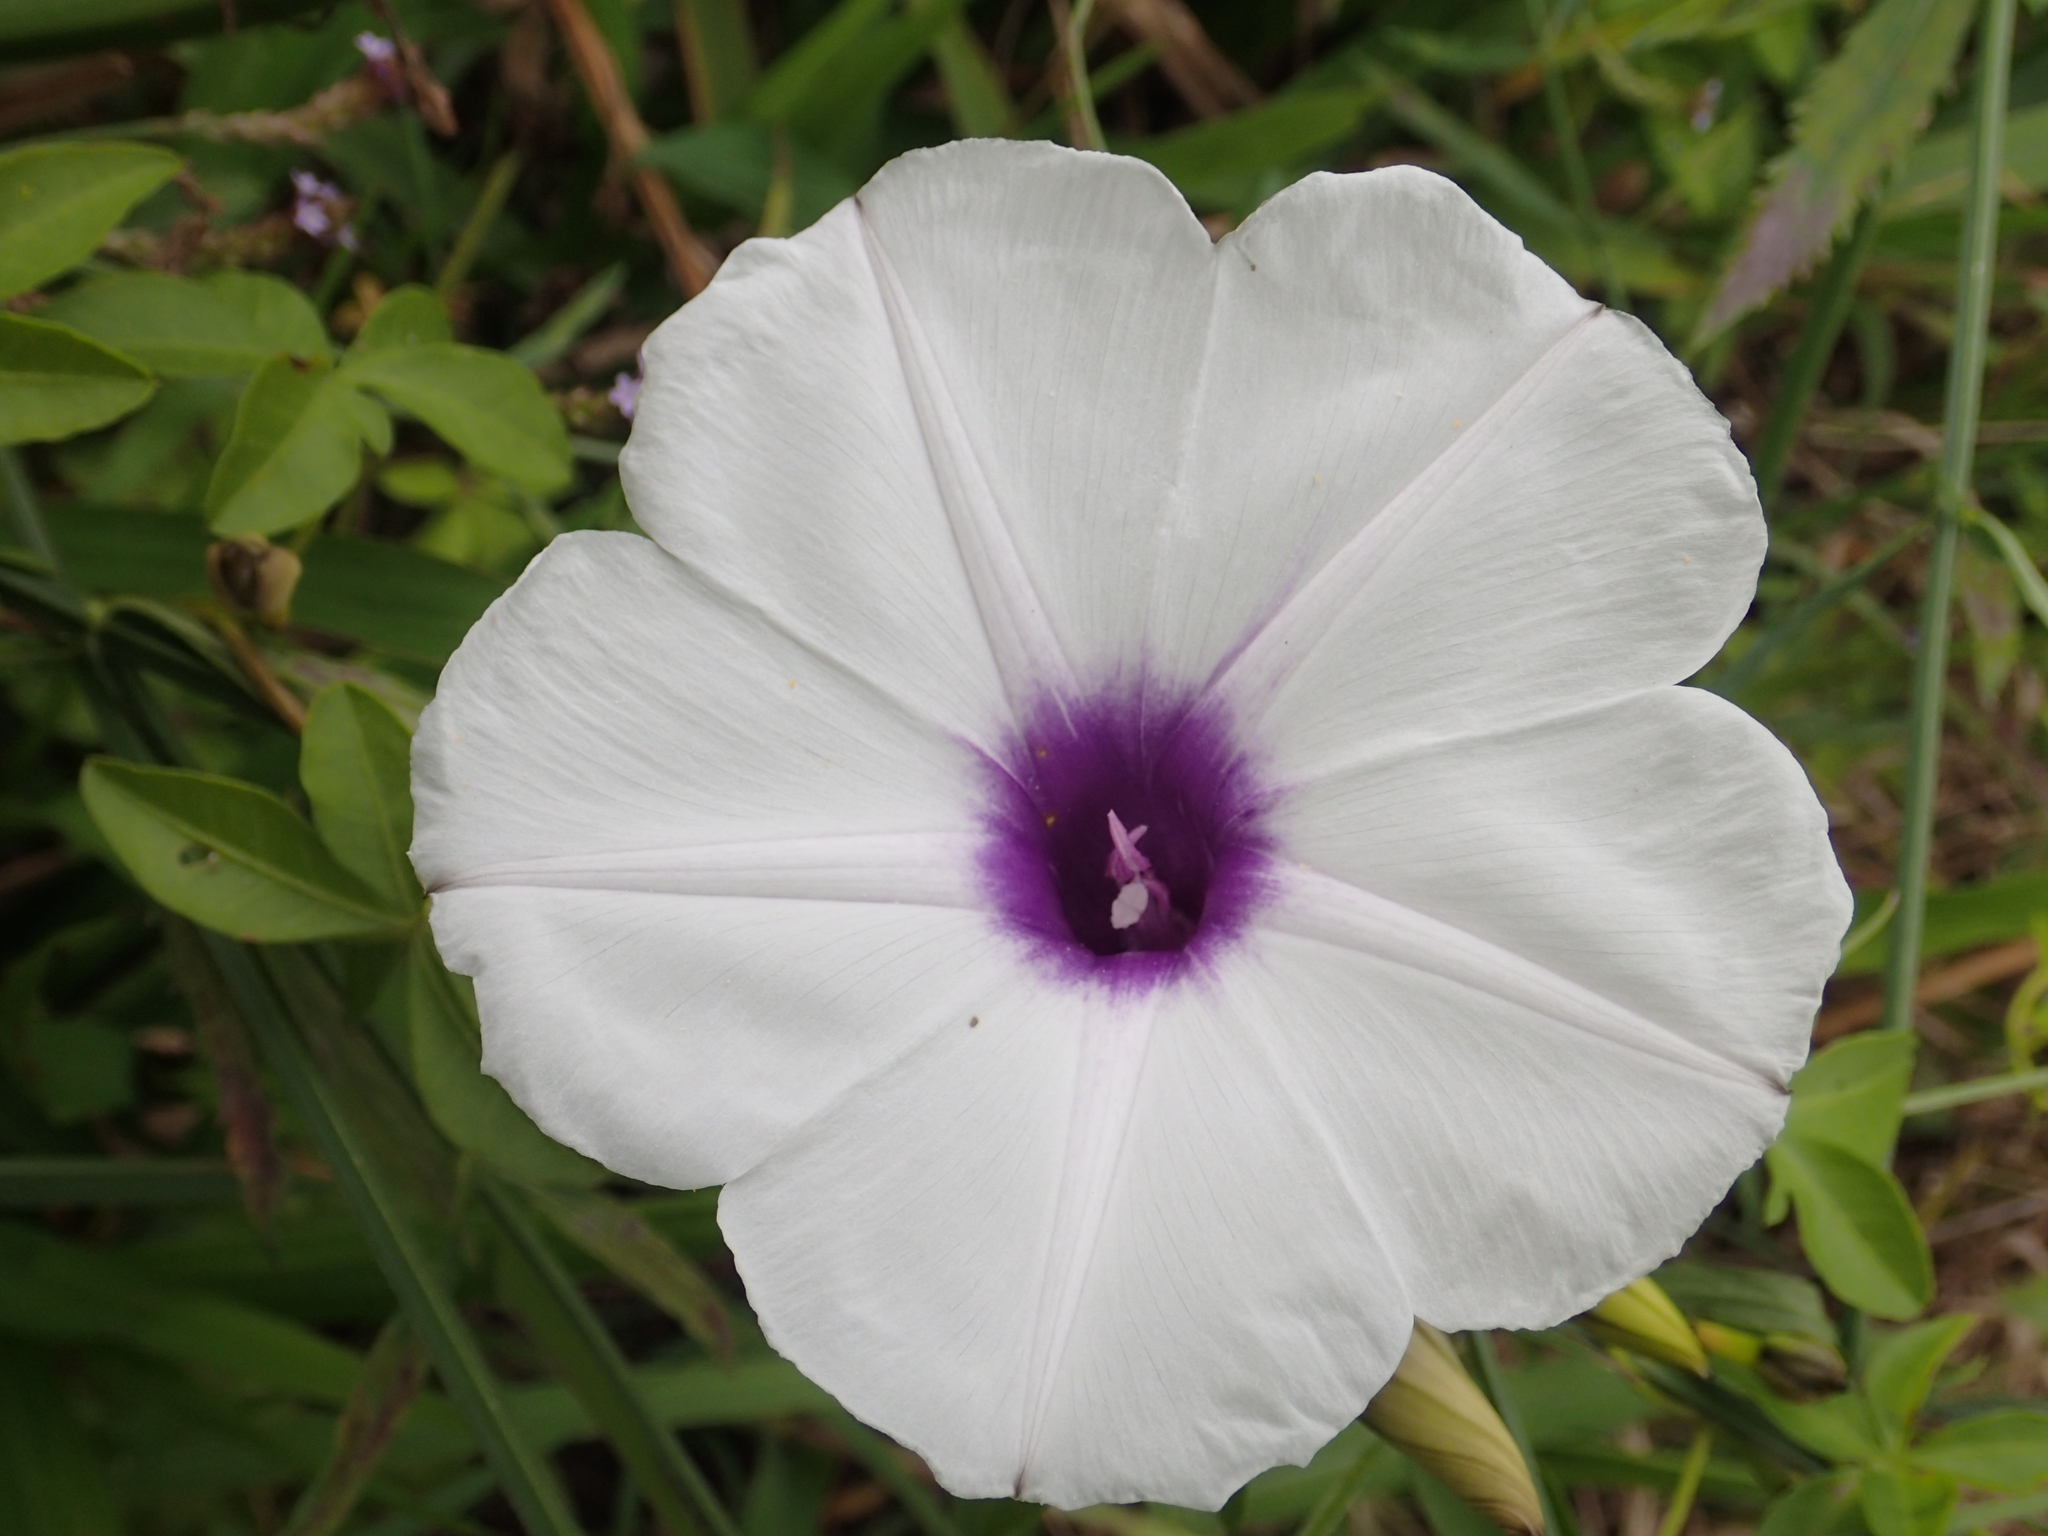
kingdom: Plantae
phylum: Tracheophyta
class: Magnoliopsida
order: Solanales
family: Convolvulaceae
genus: Ipomoea
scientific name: Ipomoea cairica
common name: Mile a minute vine
